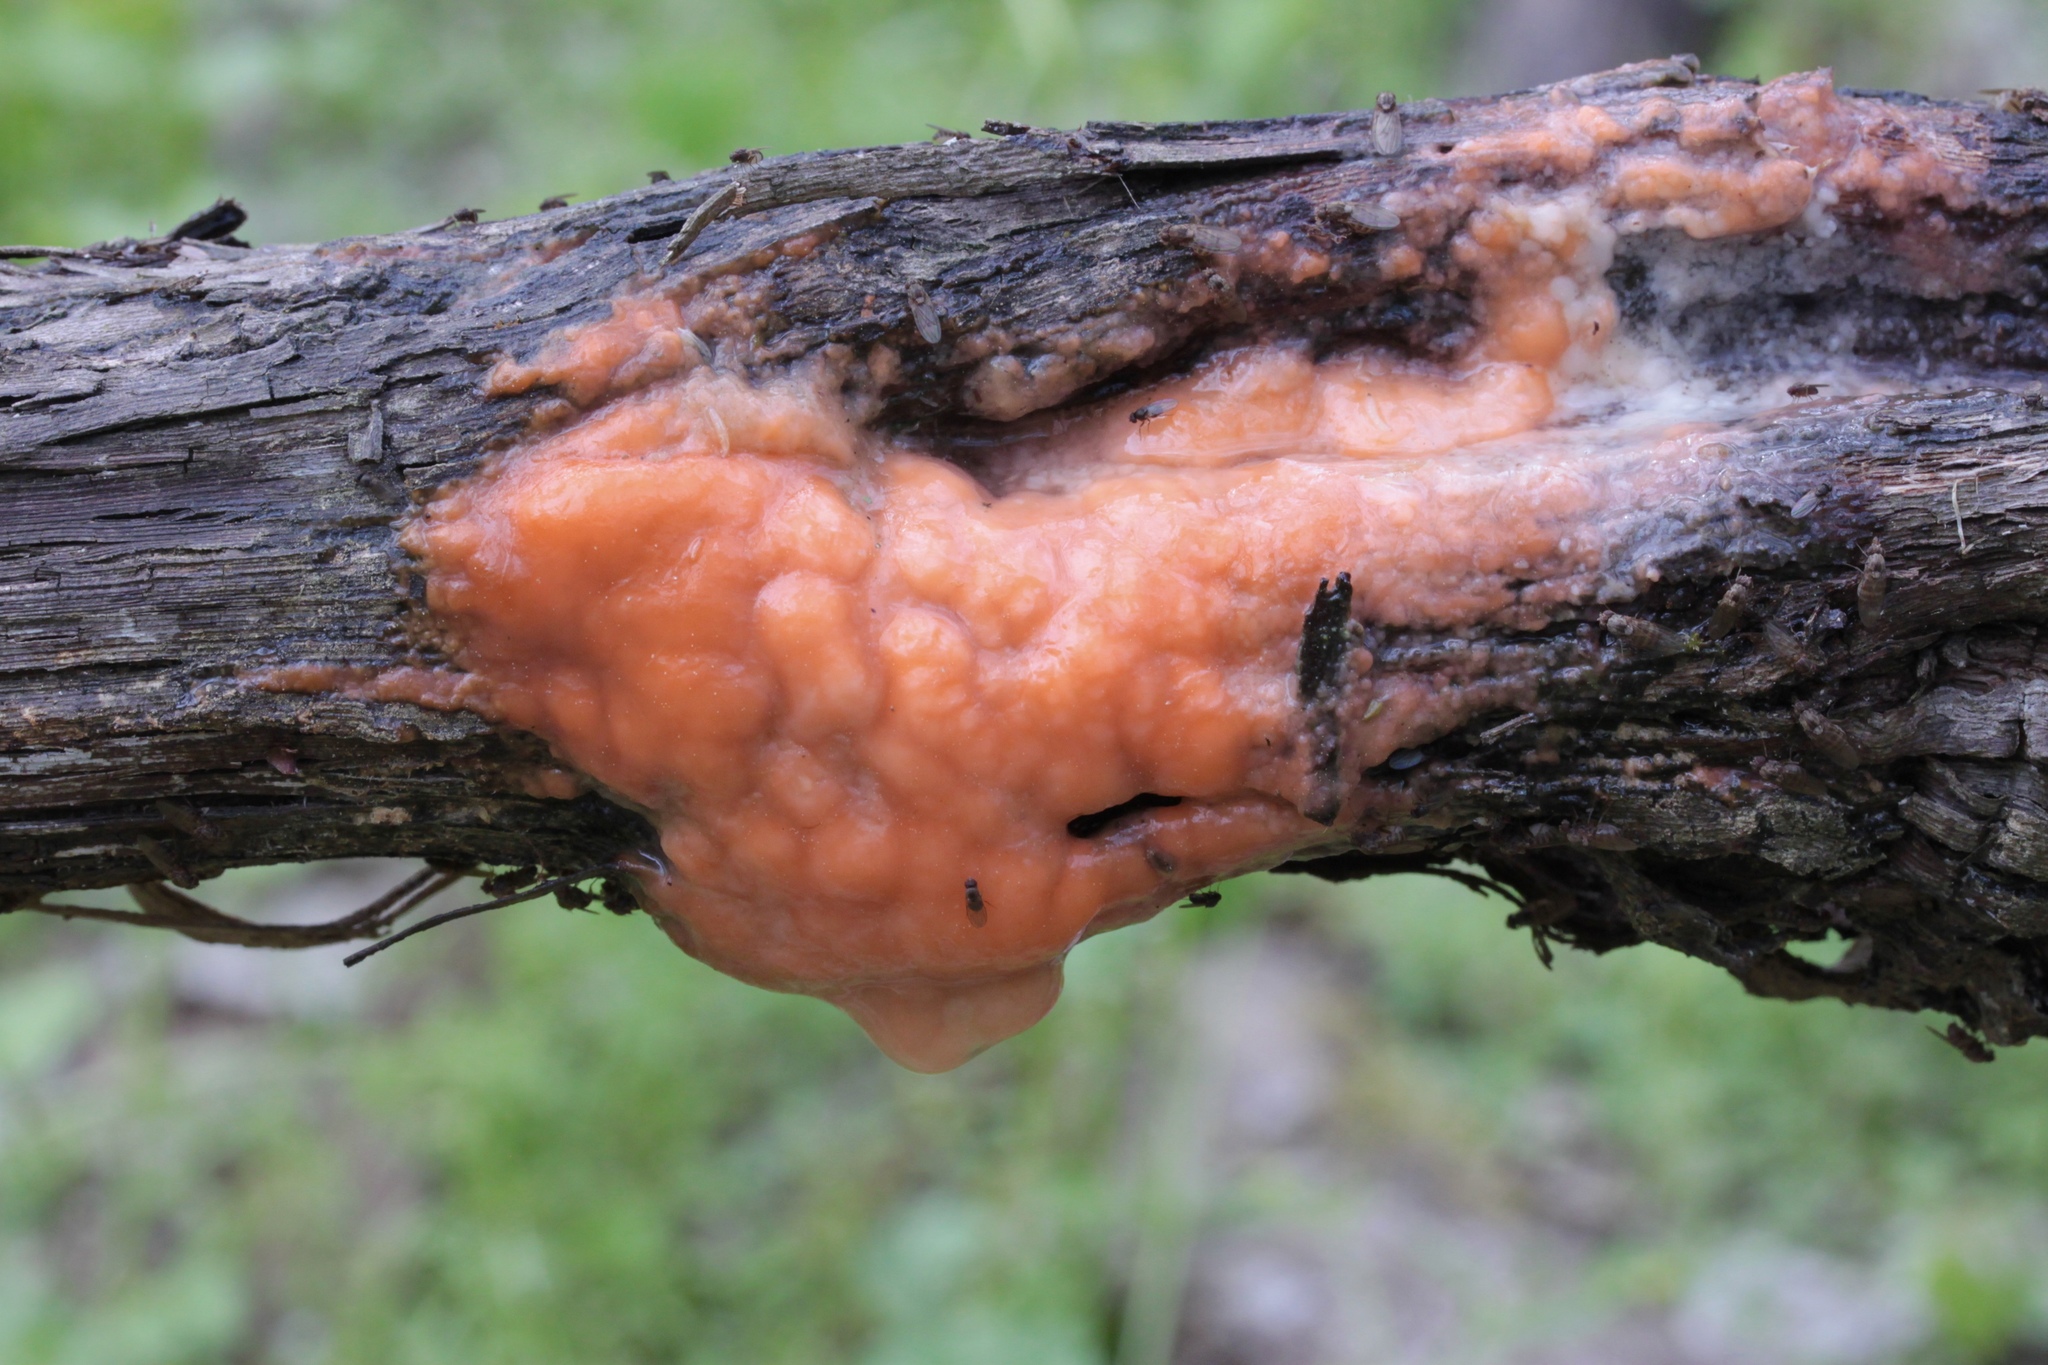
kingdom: Fungi
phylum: Ascomycota
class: Sordariomycetes
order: Hypocreales
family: Nectriaceae
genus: Fusicolla
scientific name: Fusicolla merismoides
